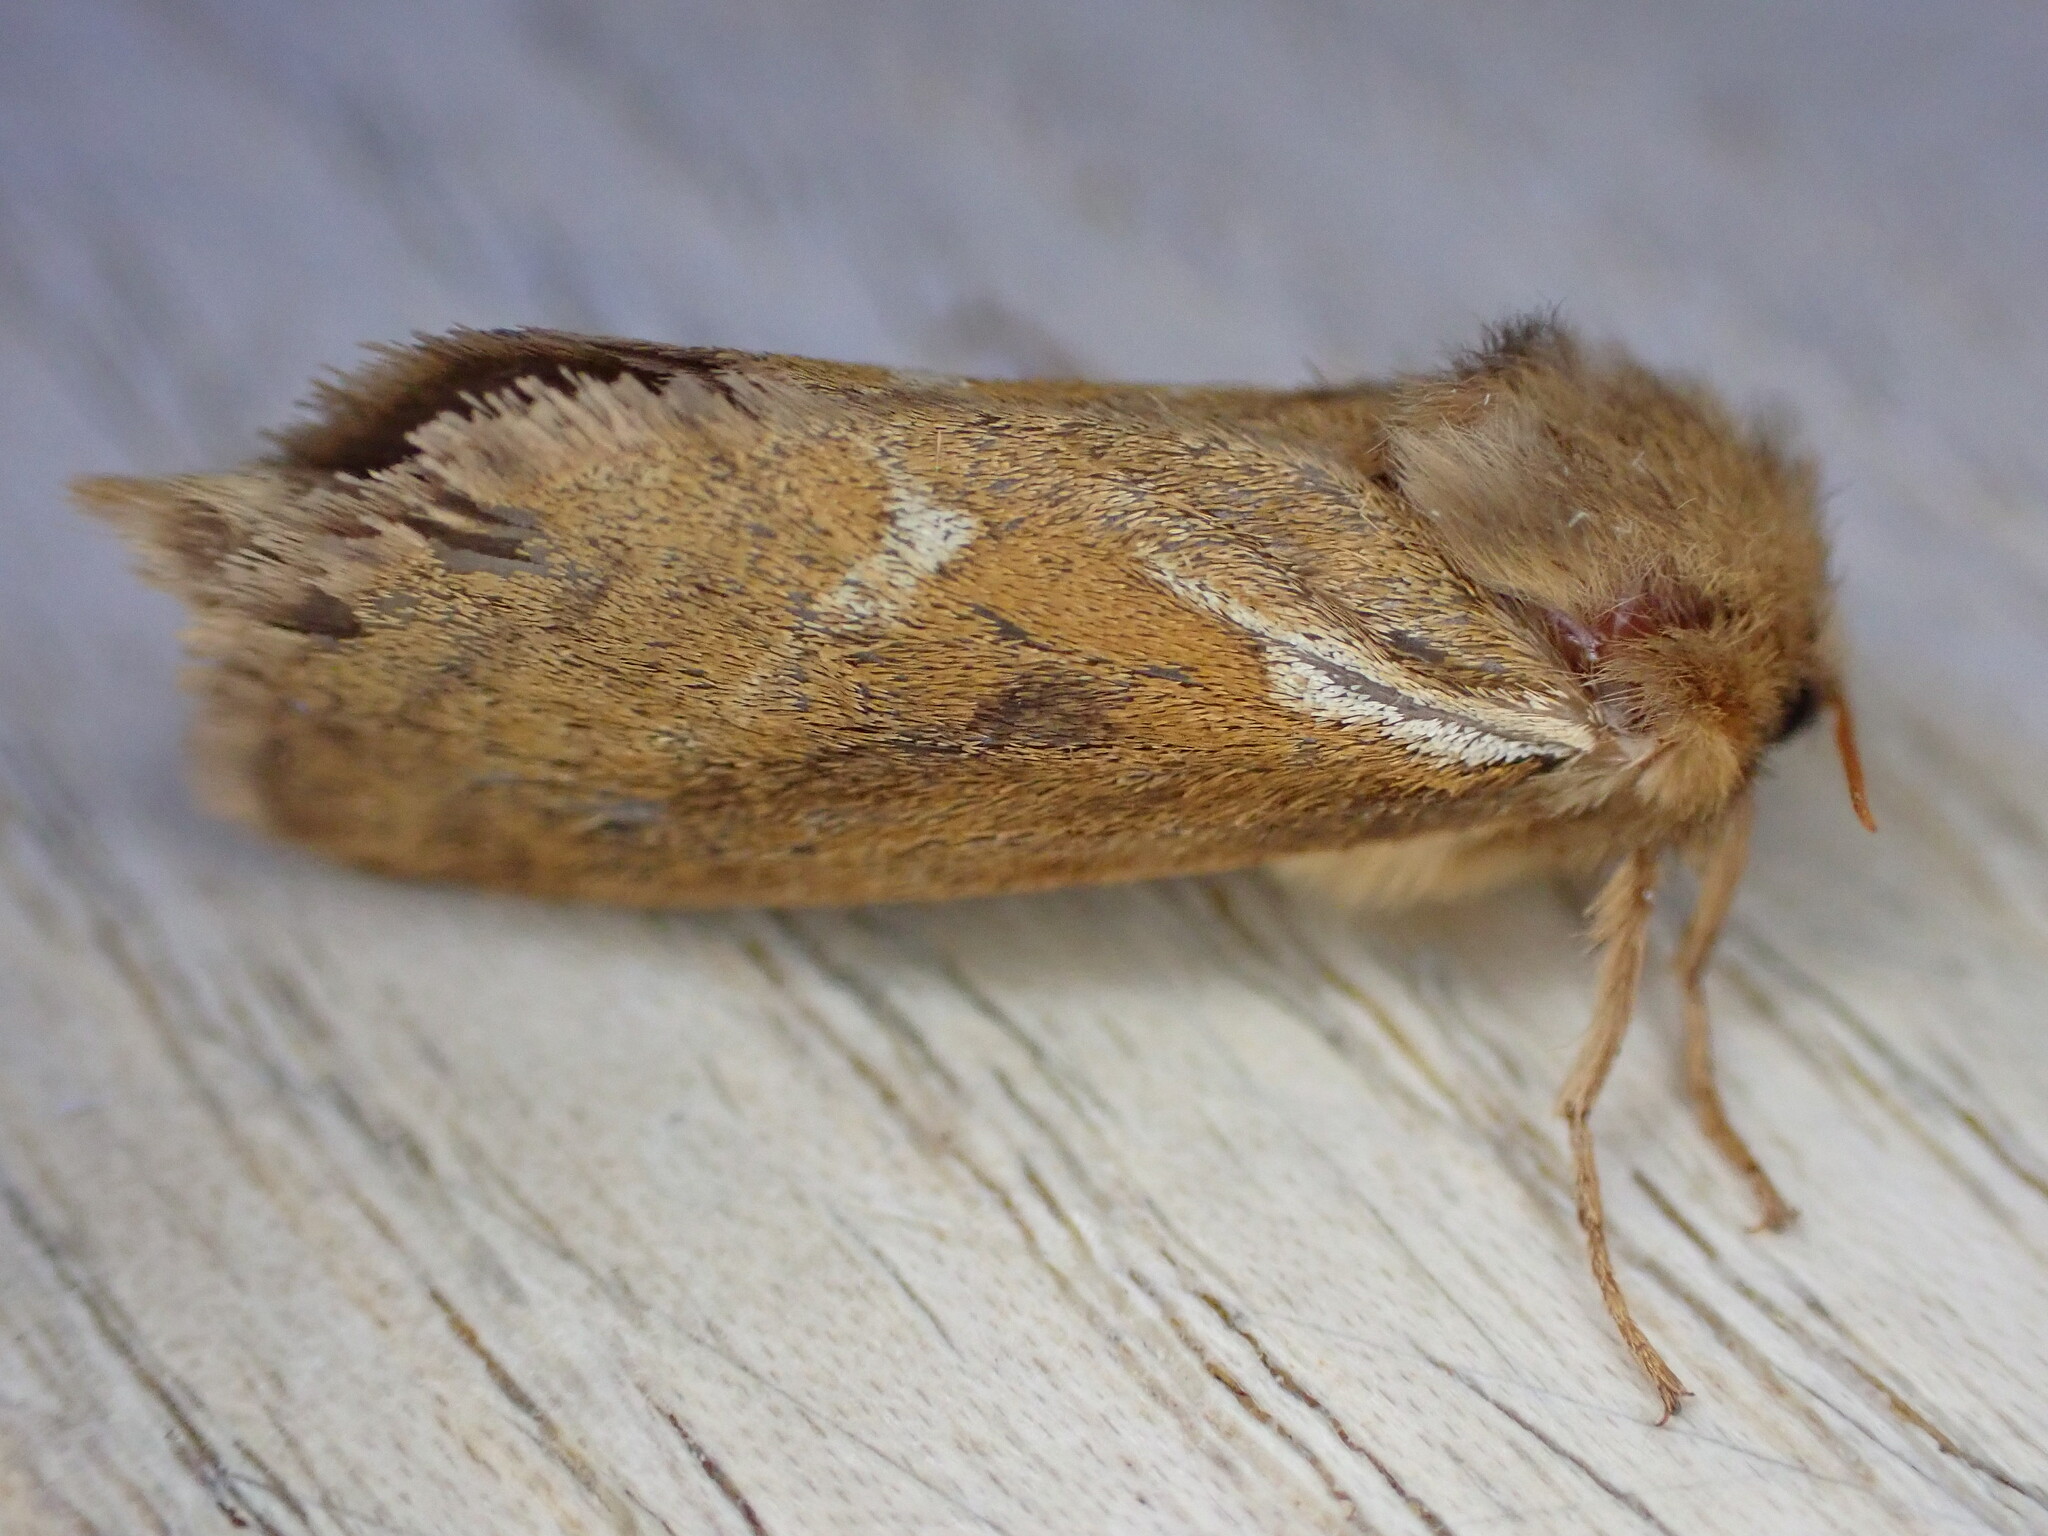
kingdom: Animalia
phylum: Arthropoda
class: Insecta
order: Lepidoptera
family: Hepialidae
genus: Korscheltellus
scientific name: Korscheltellus lupulina
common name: Common swift
